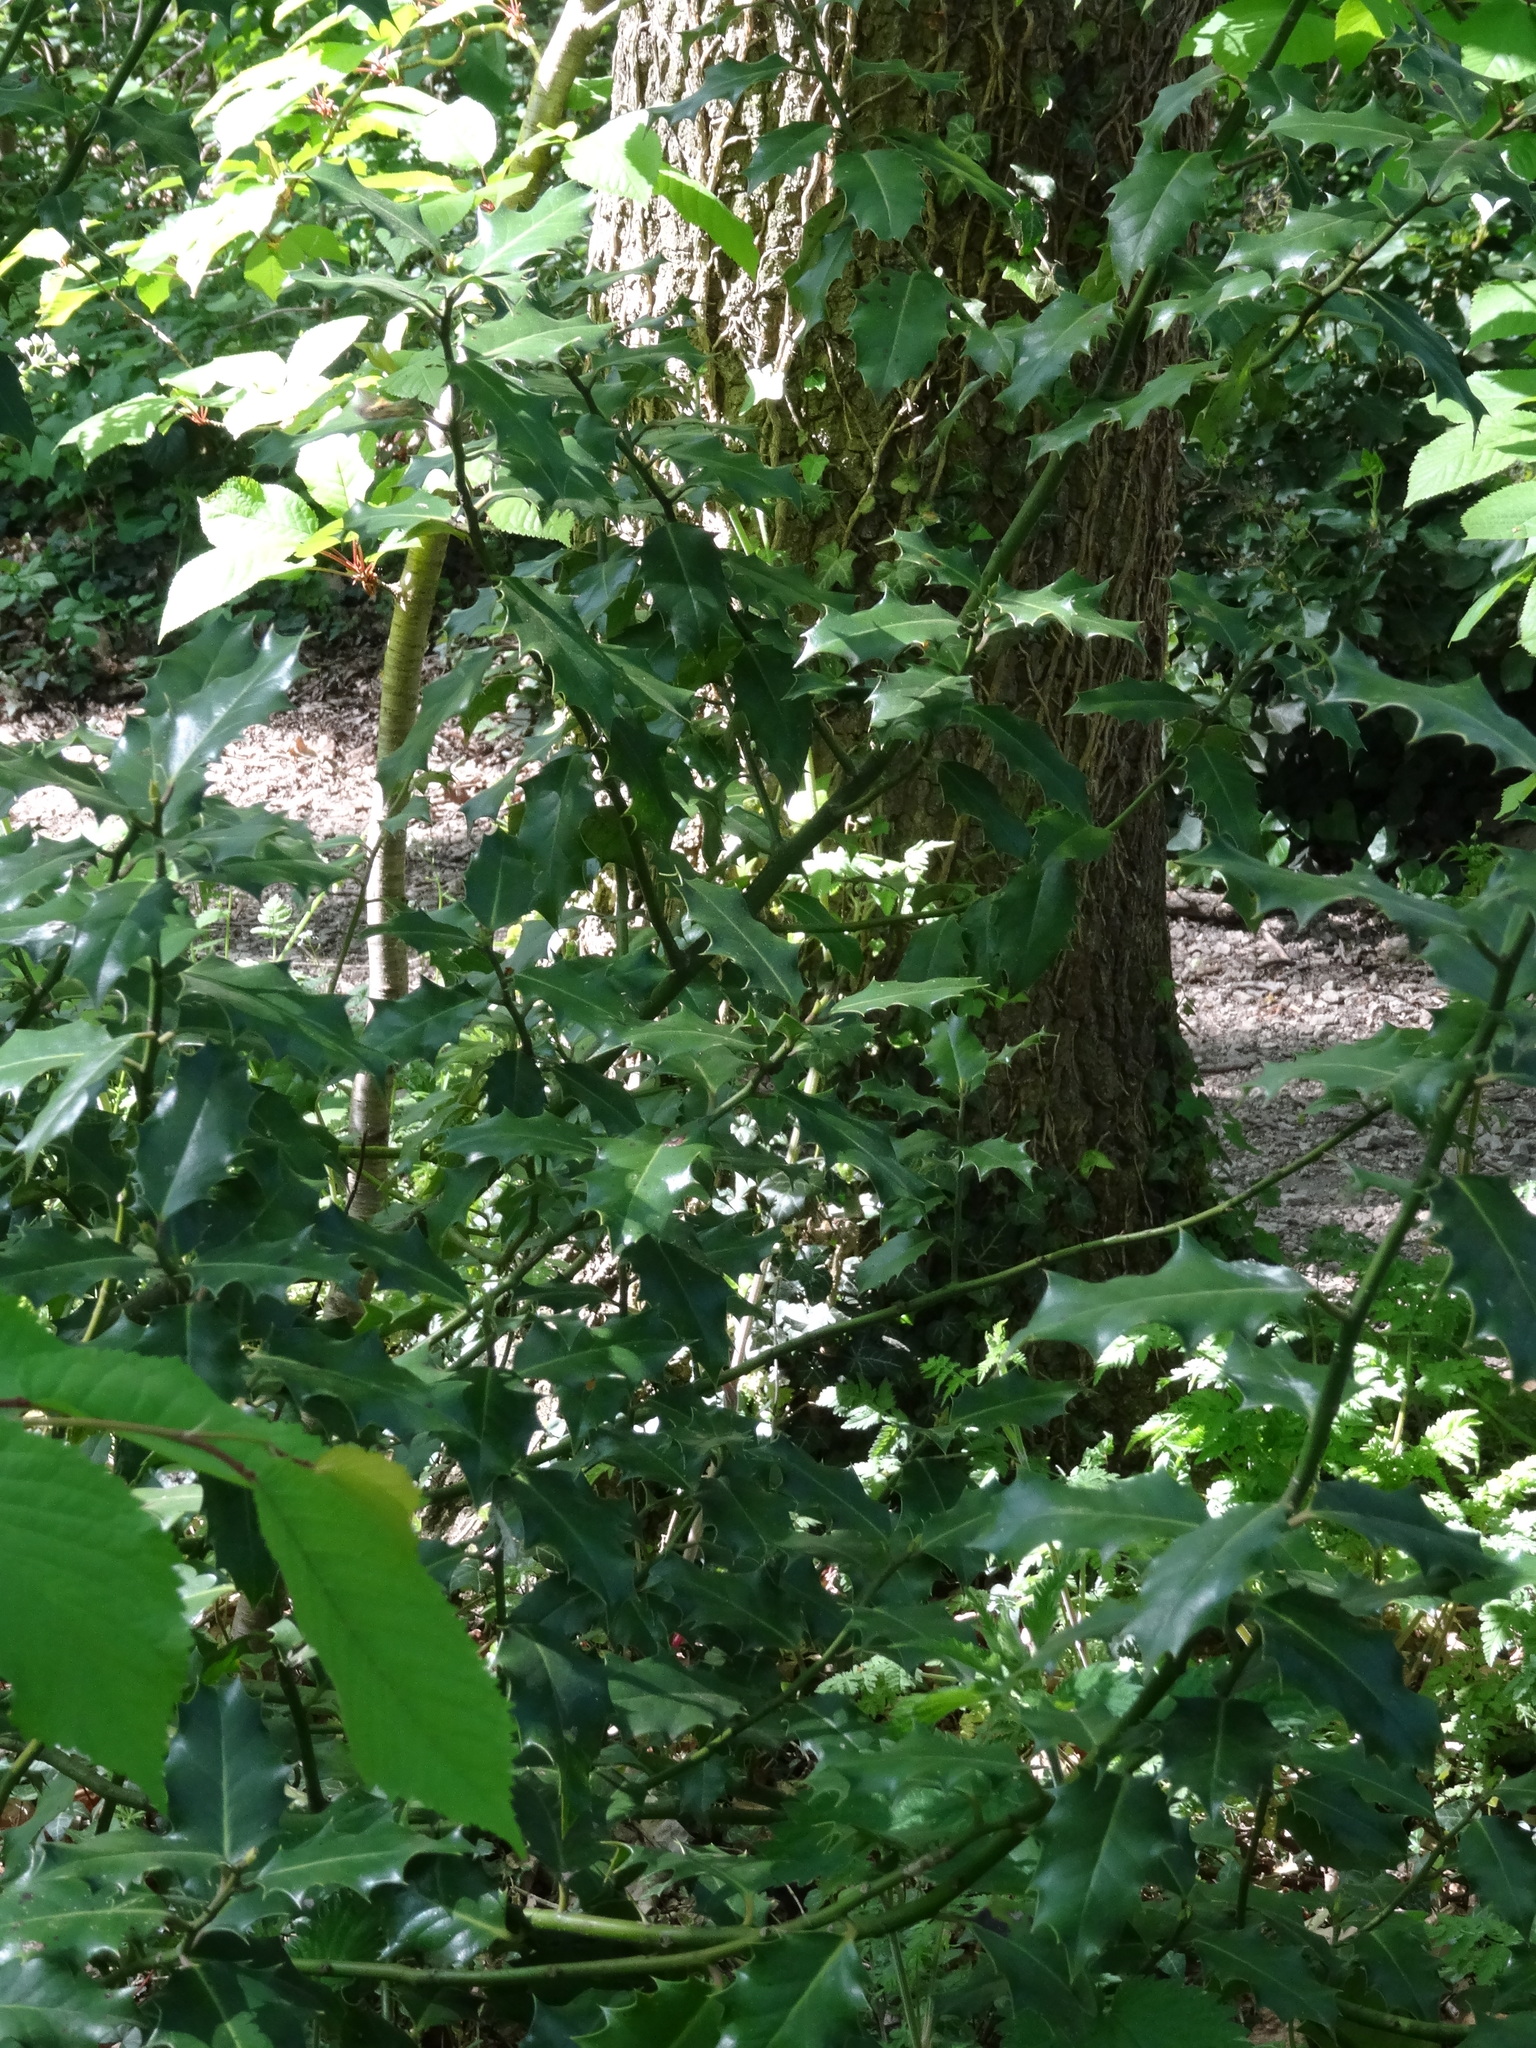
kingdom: Plantae
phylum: Tracheophyta
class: Magnoliopsida
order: Aquifoliales
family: Aquifoliaceae
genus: Ilex
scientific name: Ilex aquifolium
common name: English holly
